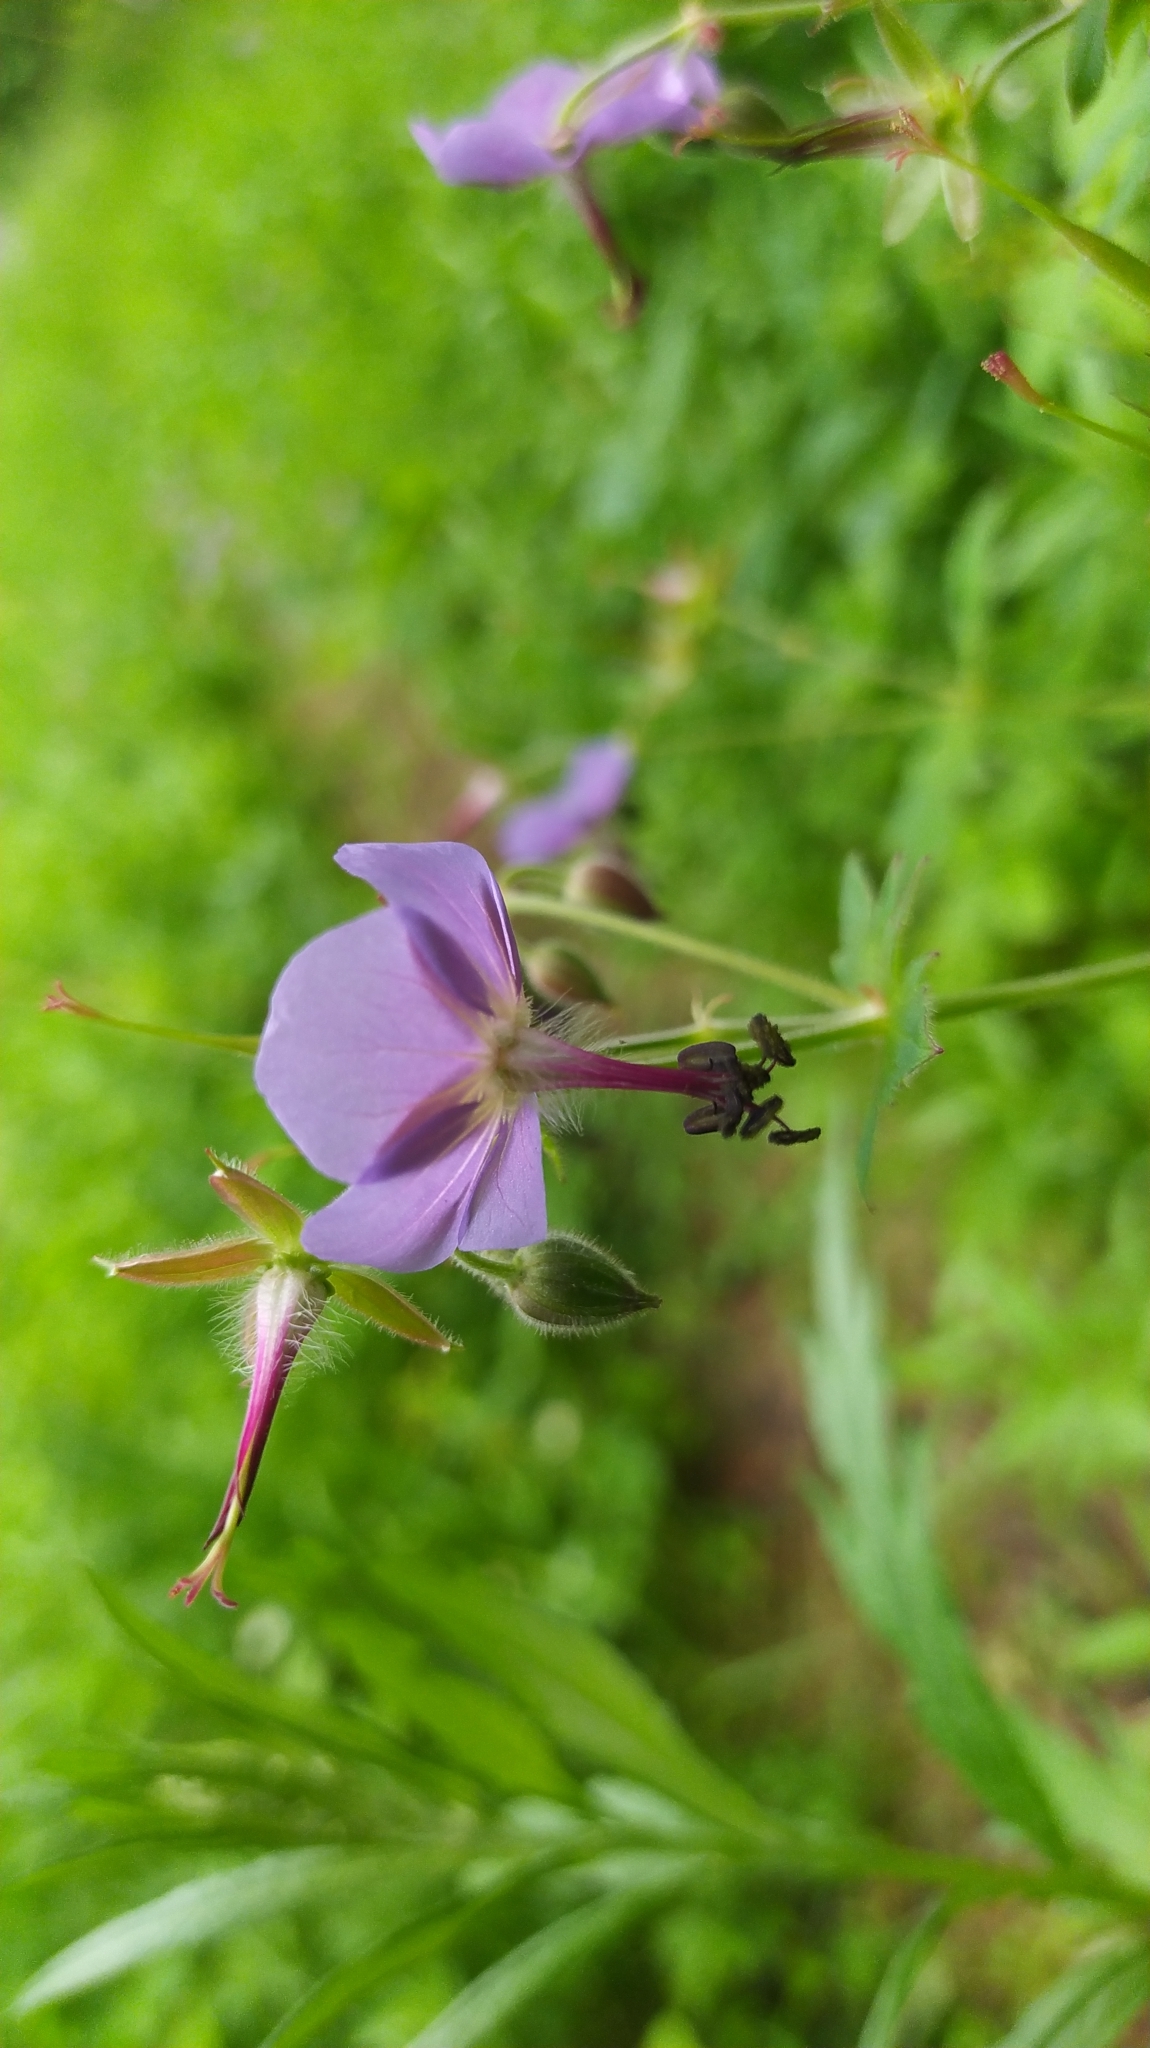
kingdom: Plantae
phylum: Tracheophyta
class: Magnoliopsida
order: Geraniales
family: Geraniaceae
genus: Geranium
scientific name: Geranium platyanthum
